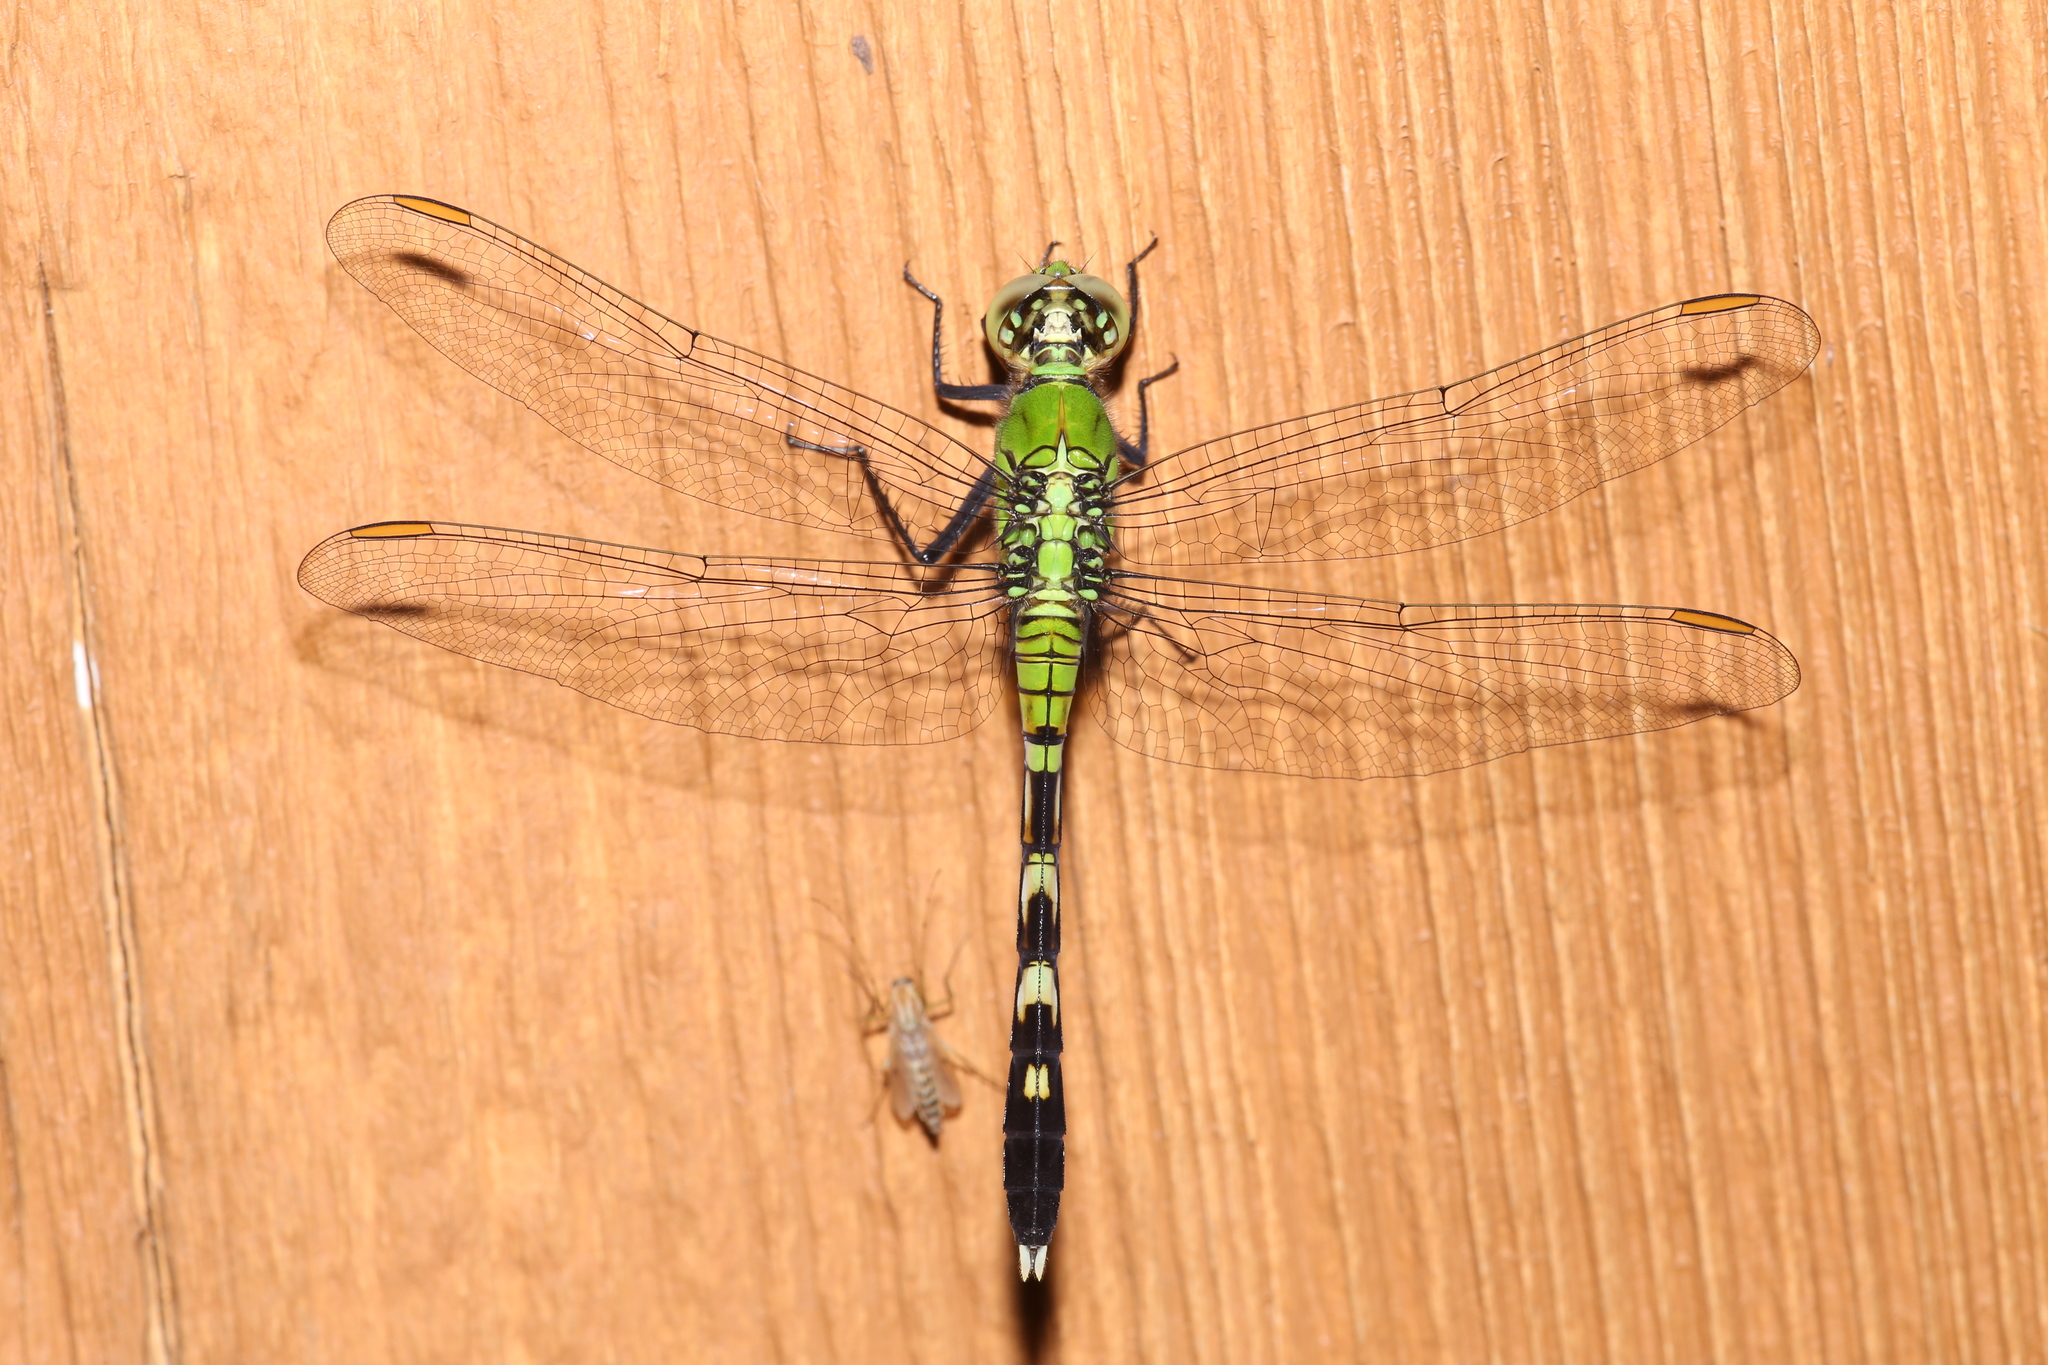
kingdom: Animalia
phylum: Arthropoda
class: Insecta
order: Odonata
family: Libellulidae
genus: Erythemis
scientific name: Erythemis simplicicollis
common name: Eastern pondhawk
